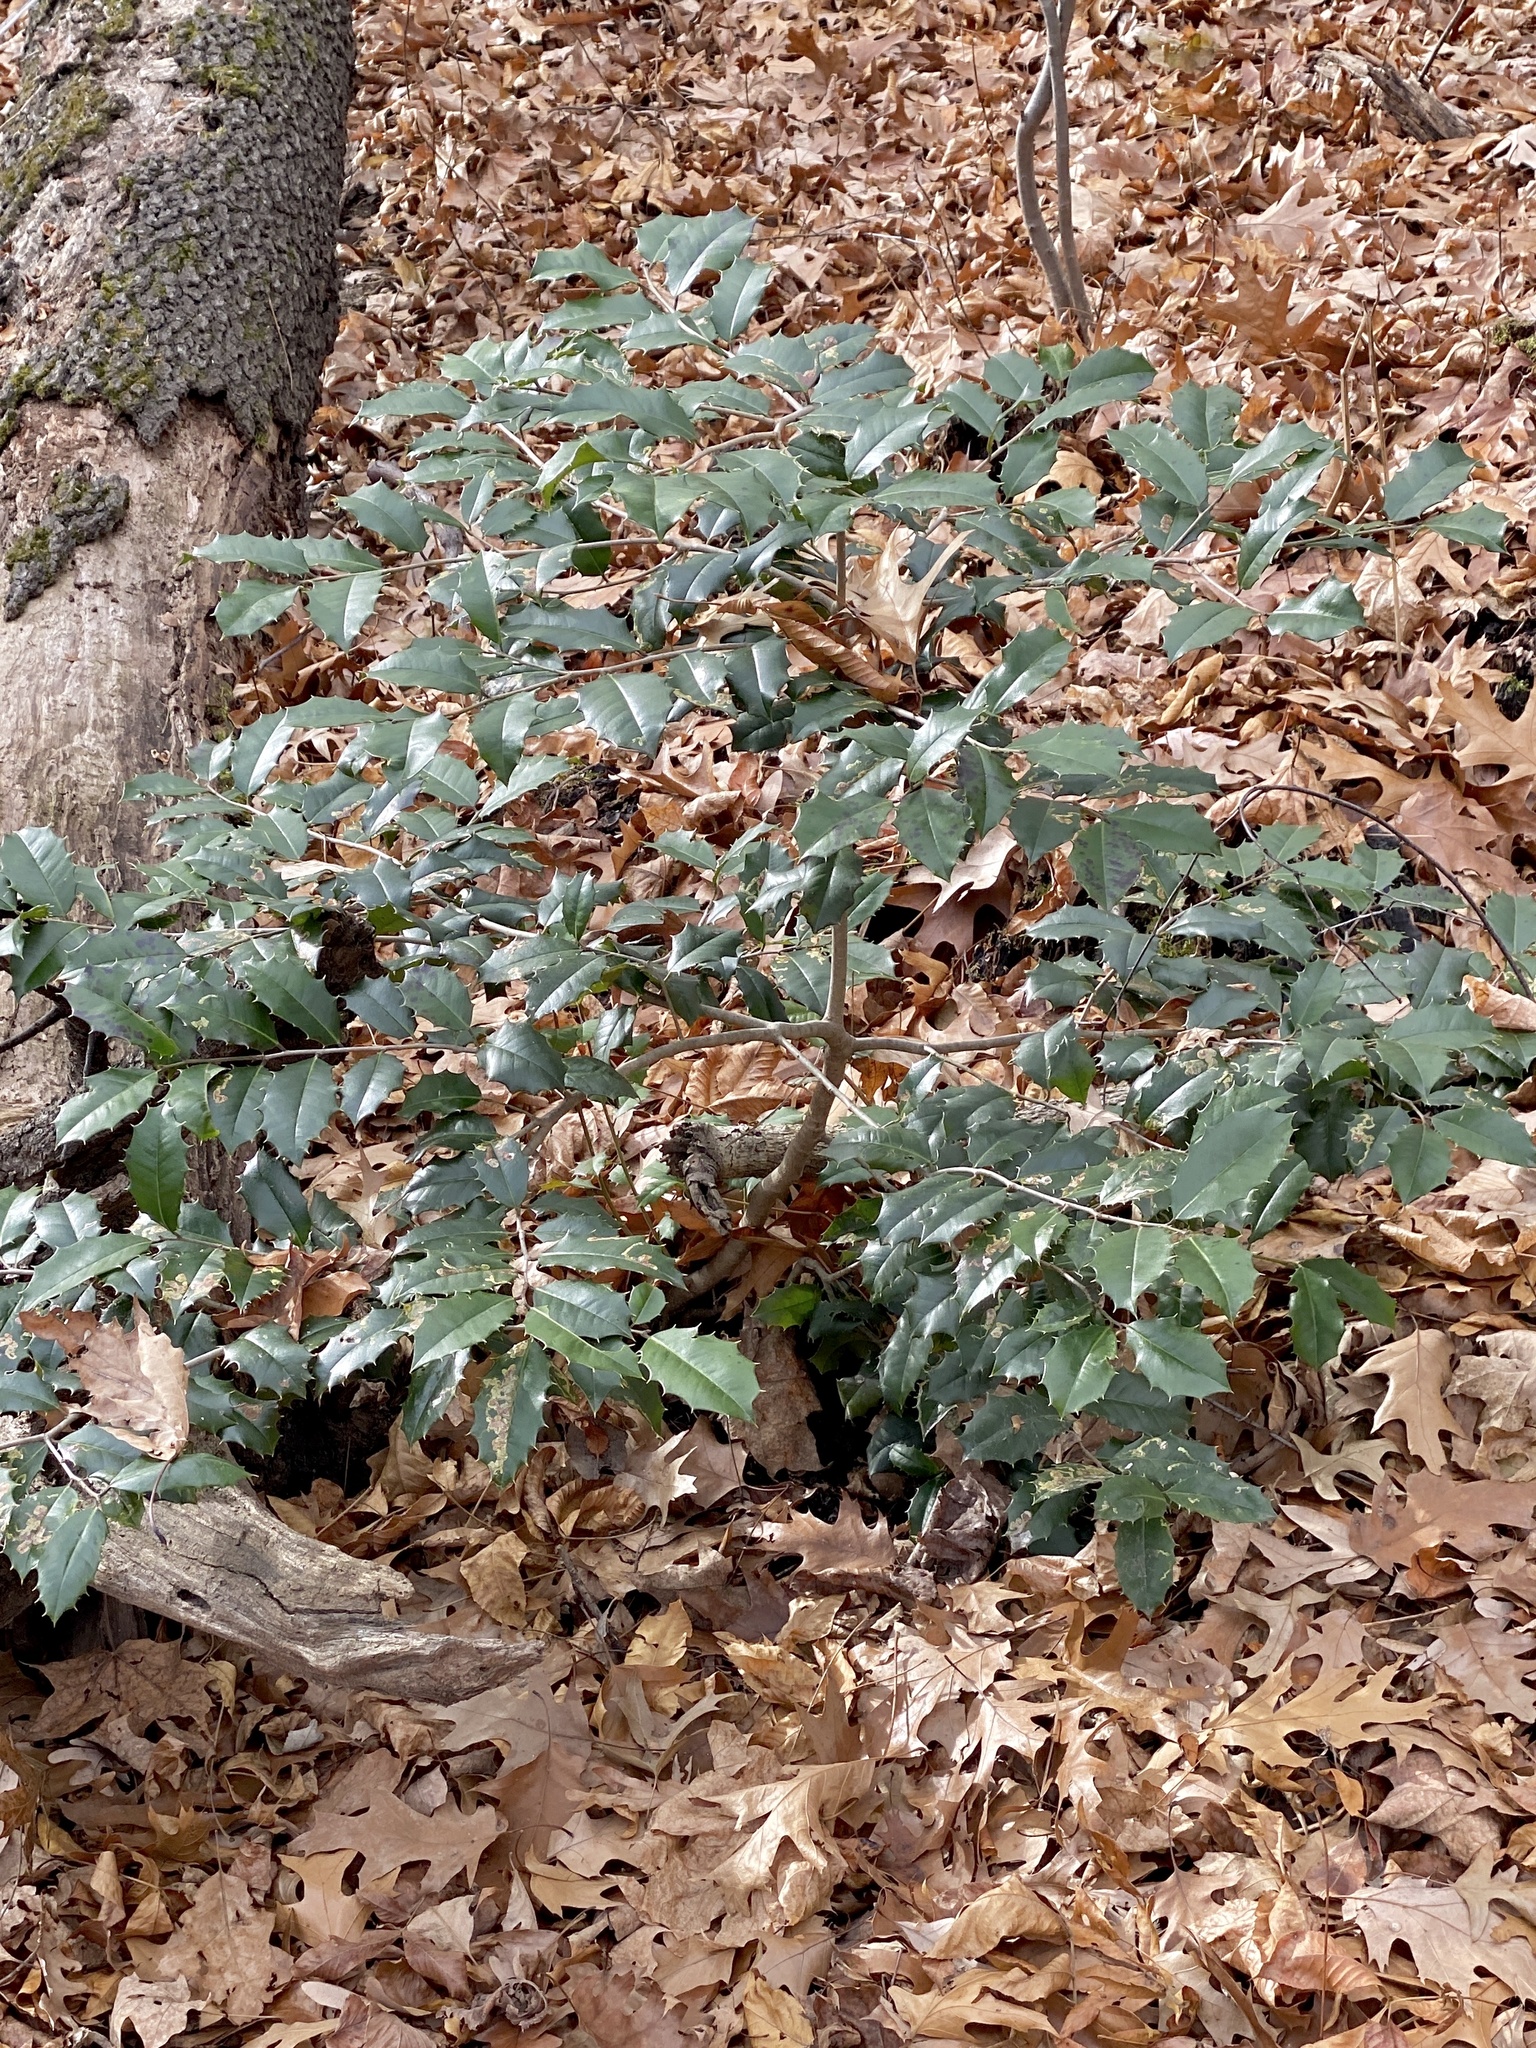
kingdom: Plantae
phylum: Tracheophyta
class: Magnoliopsida
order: Aquifoliales
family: Aquifoliaceae
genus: Ilex
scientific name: Ilex opaca
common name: American holly
